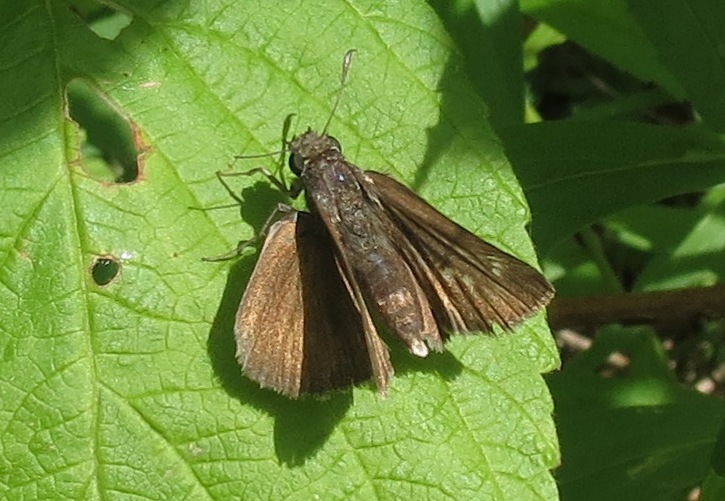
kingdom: Animalia
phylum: Arthropoda
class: Insecta
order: Lepidoptera
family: Hesperiidae
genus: Euphyes
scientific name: Euphyes vestris
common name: Dun skipper
